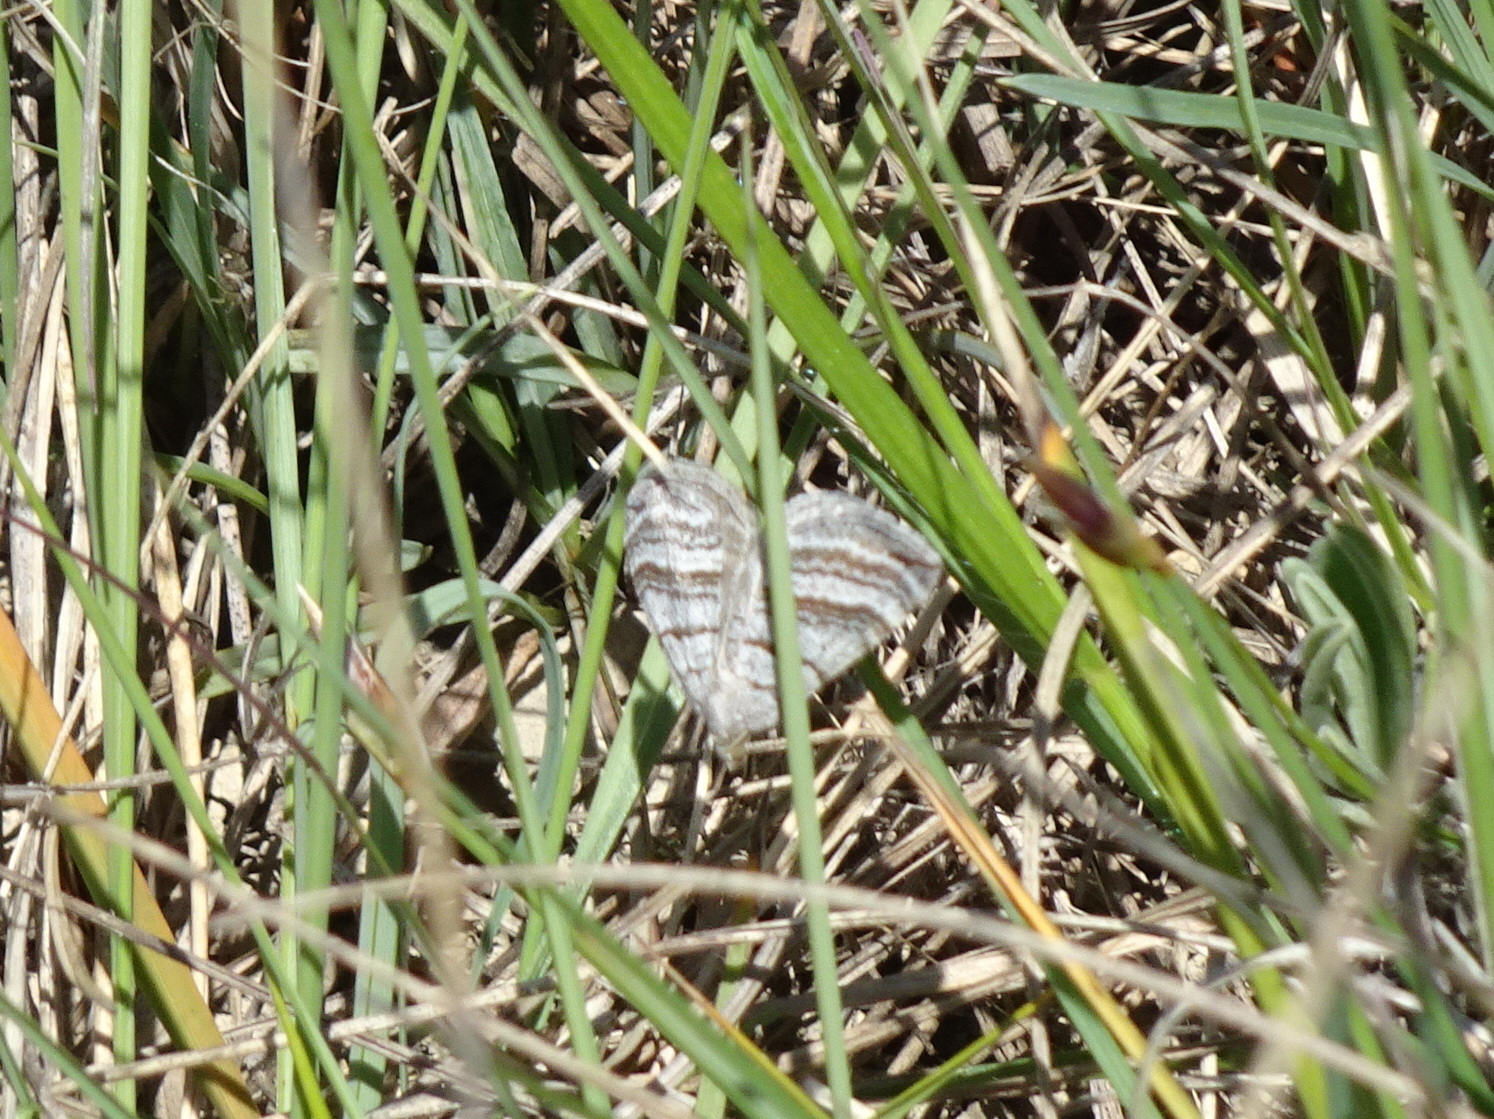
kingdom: Animalia
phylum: Arthropoda
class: Insecta
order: Lepidoptera
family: Geometridae
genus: Scotopteryx
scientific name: Scotopteryx coarctaria
